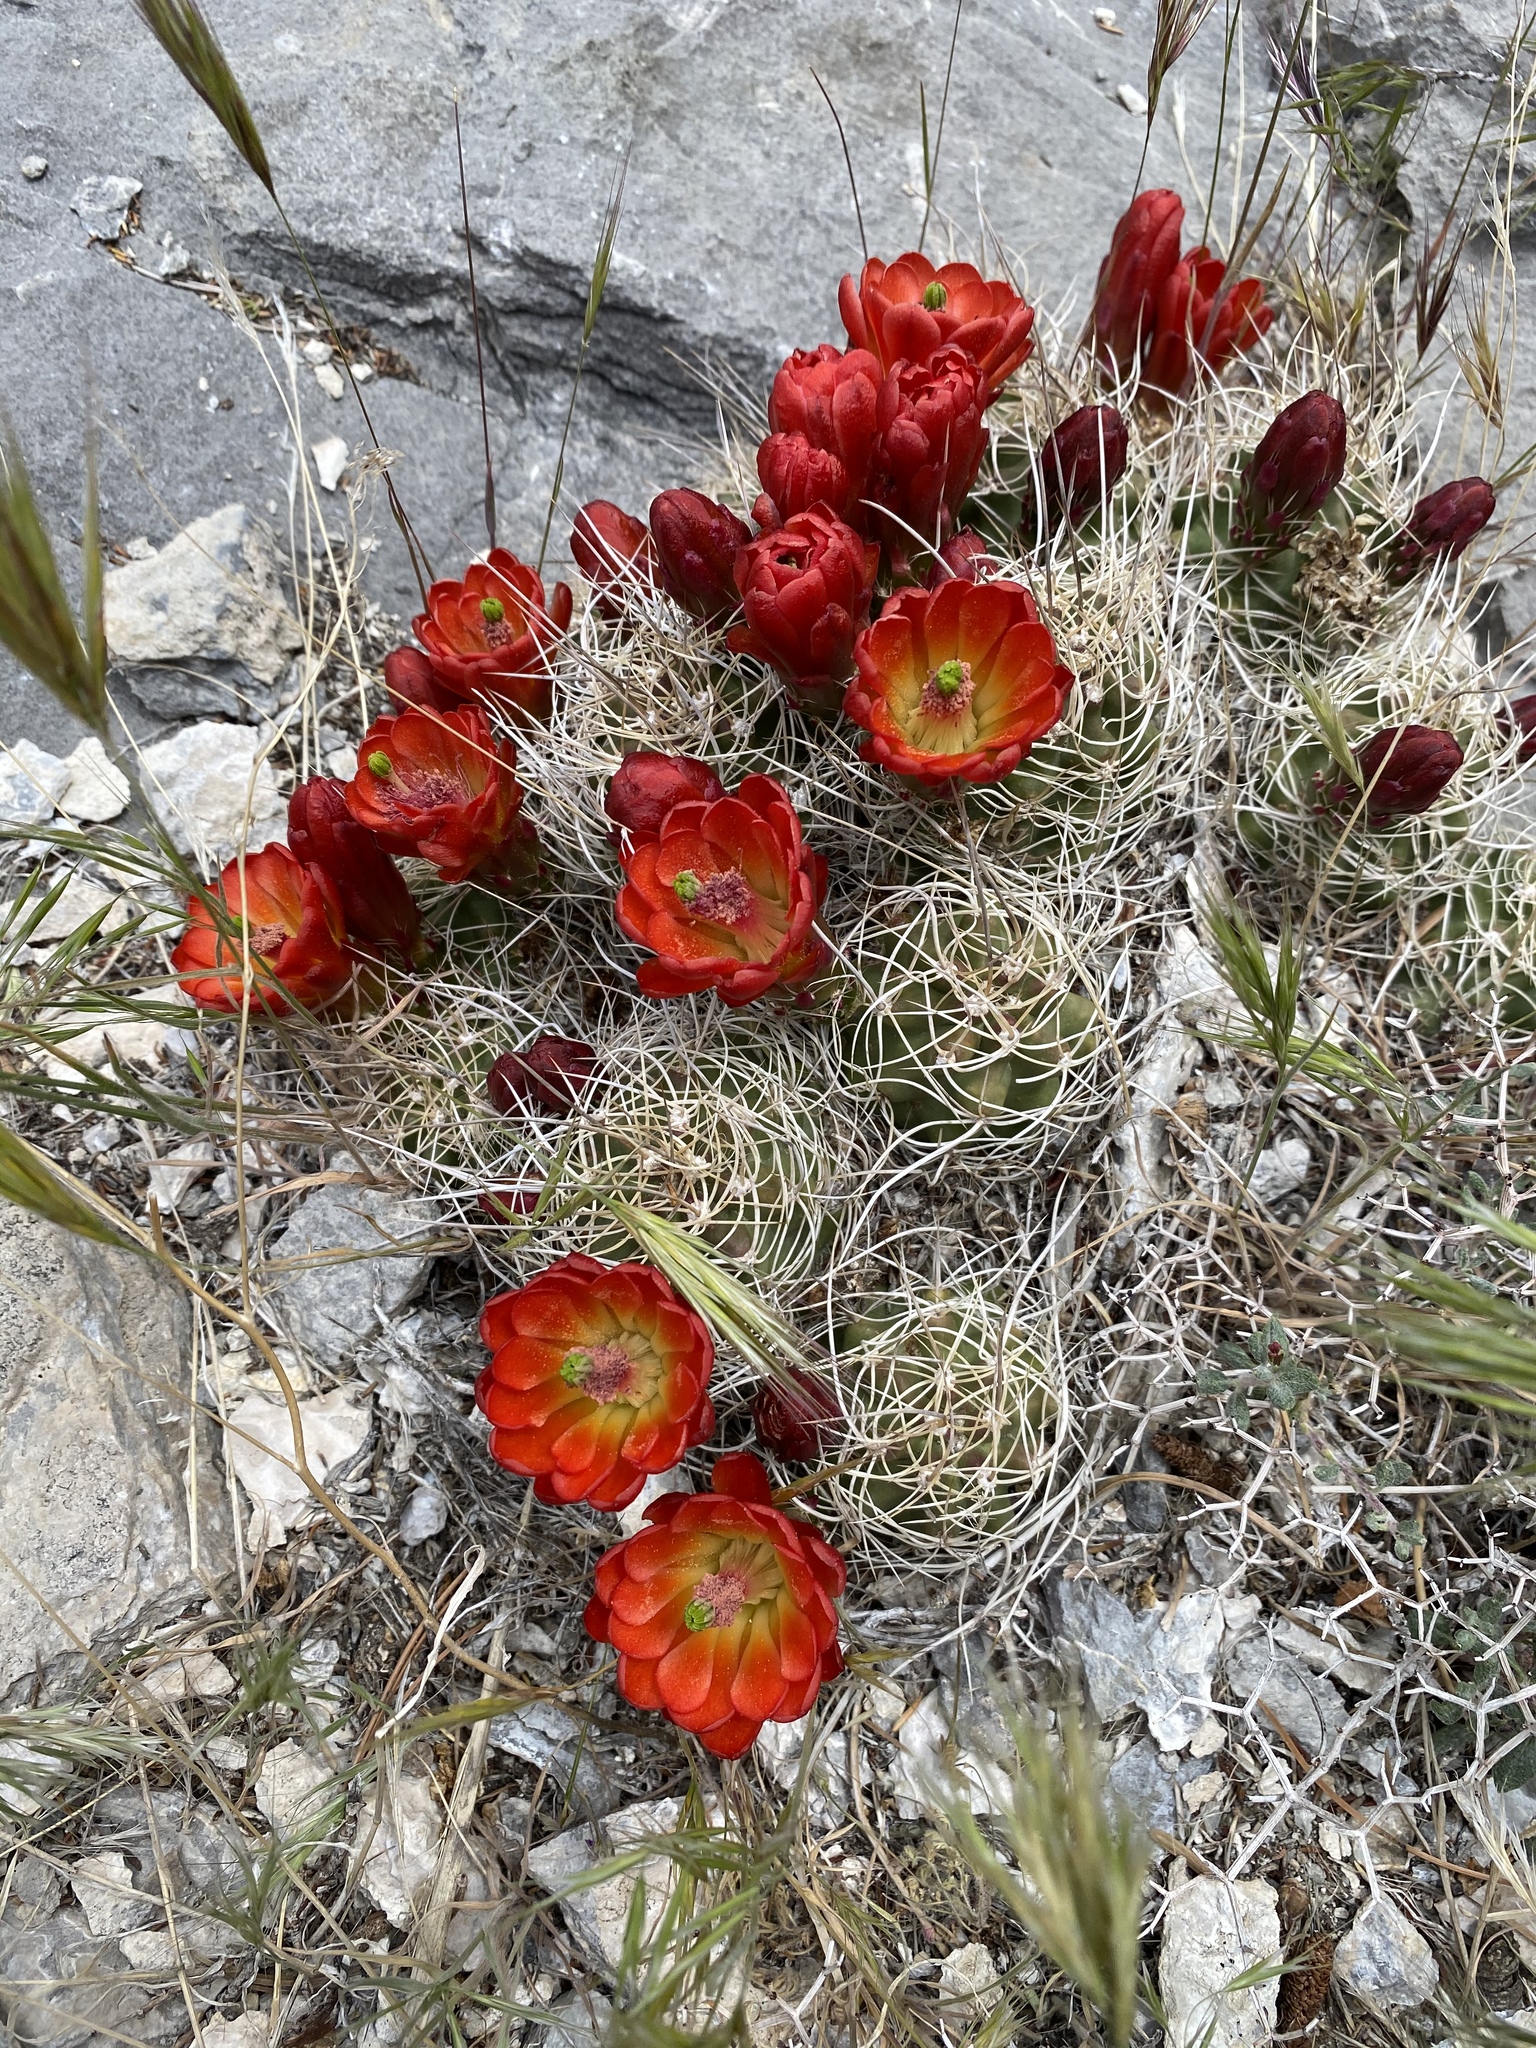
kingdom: Plantae
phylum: Tracheophyta
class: Magnoliopsida
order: Caryophyllales
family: Cactaceae
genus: Echinocereus
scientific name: Echinocereus triglochidiatus
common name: Claretcup hedgehog
